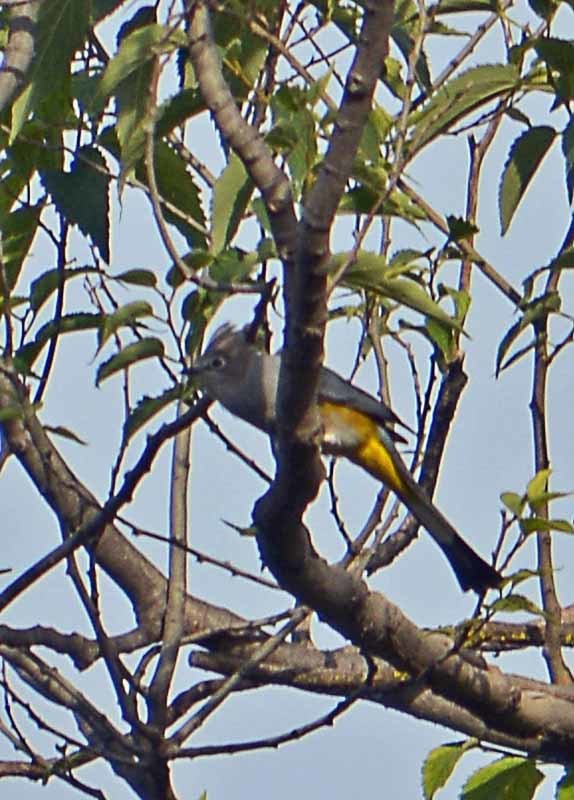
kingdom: Animalia
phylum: Chordata
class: Aves
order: Passeriformes
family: Ptilogonatidae
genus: Ptilogonys
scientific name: Ptilogonys cinereus
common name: Gray silky-flycatcher
